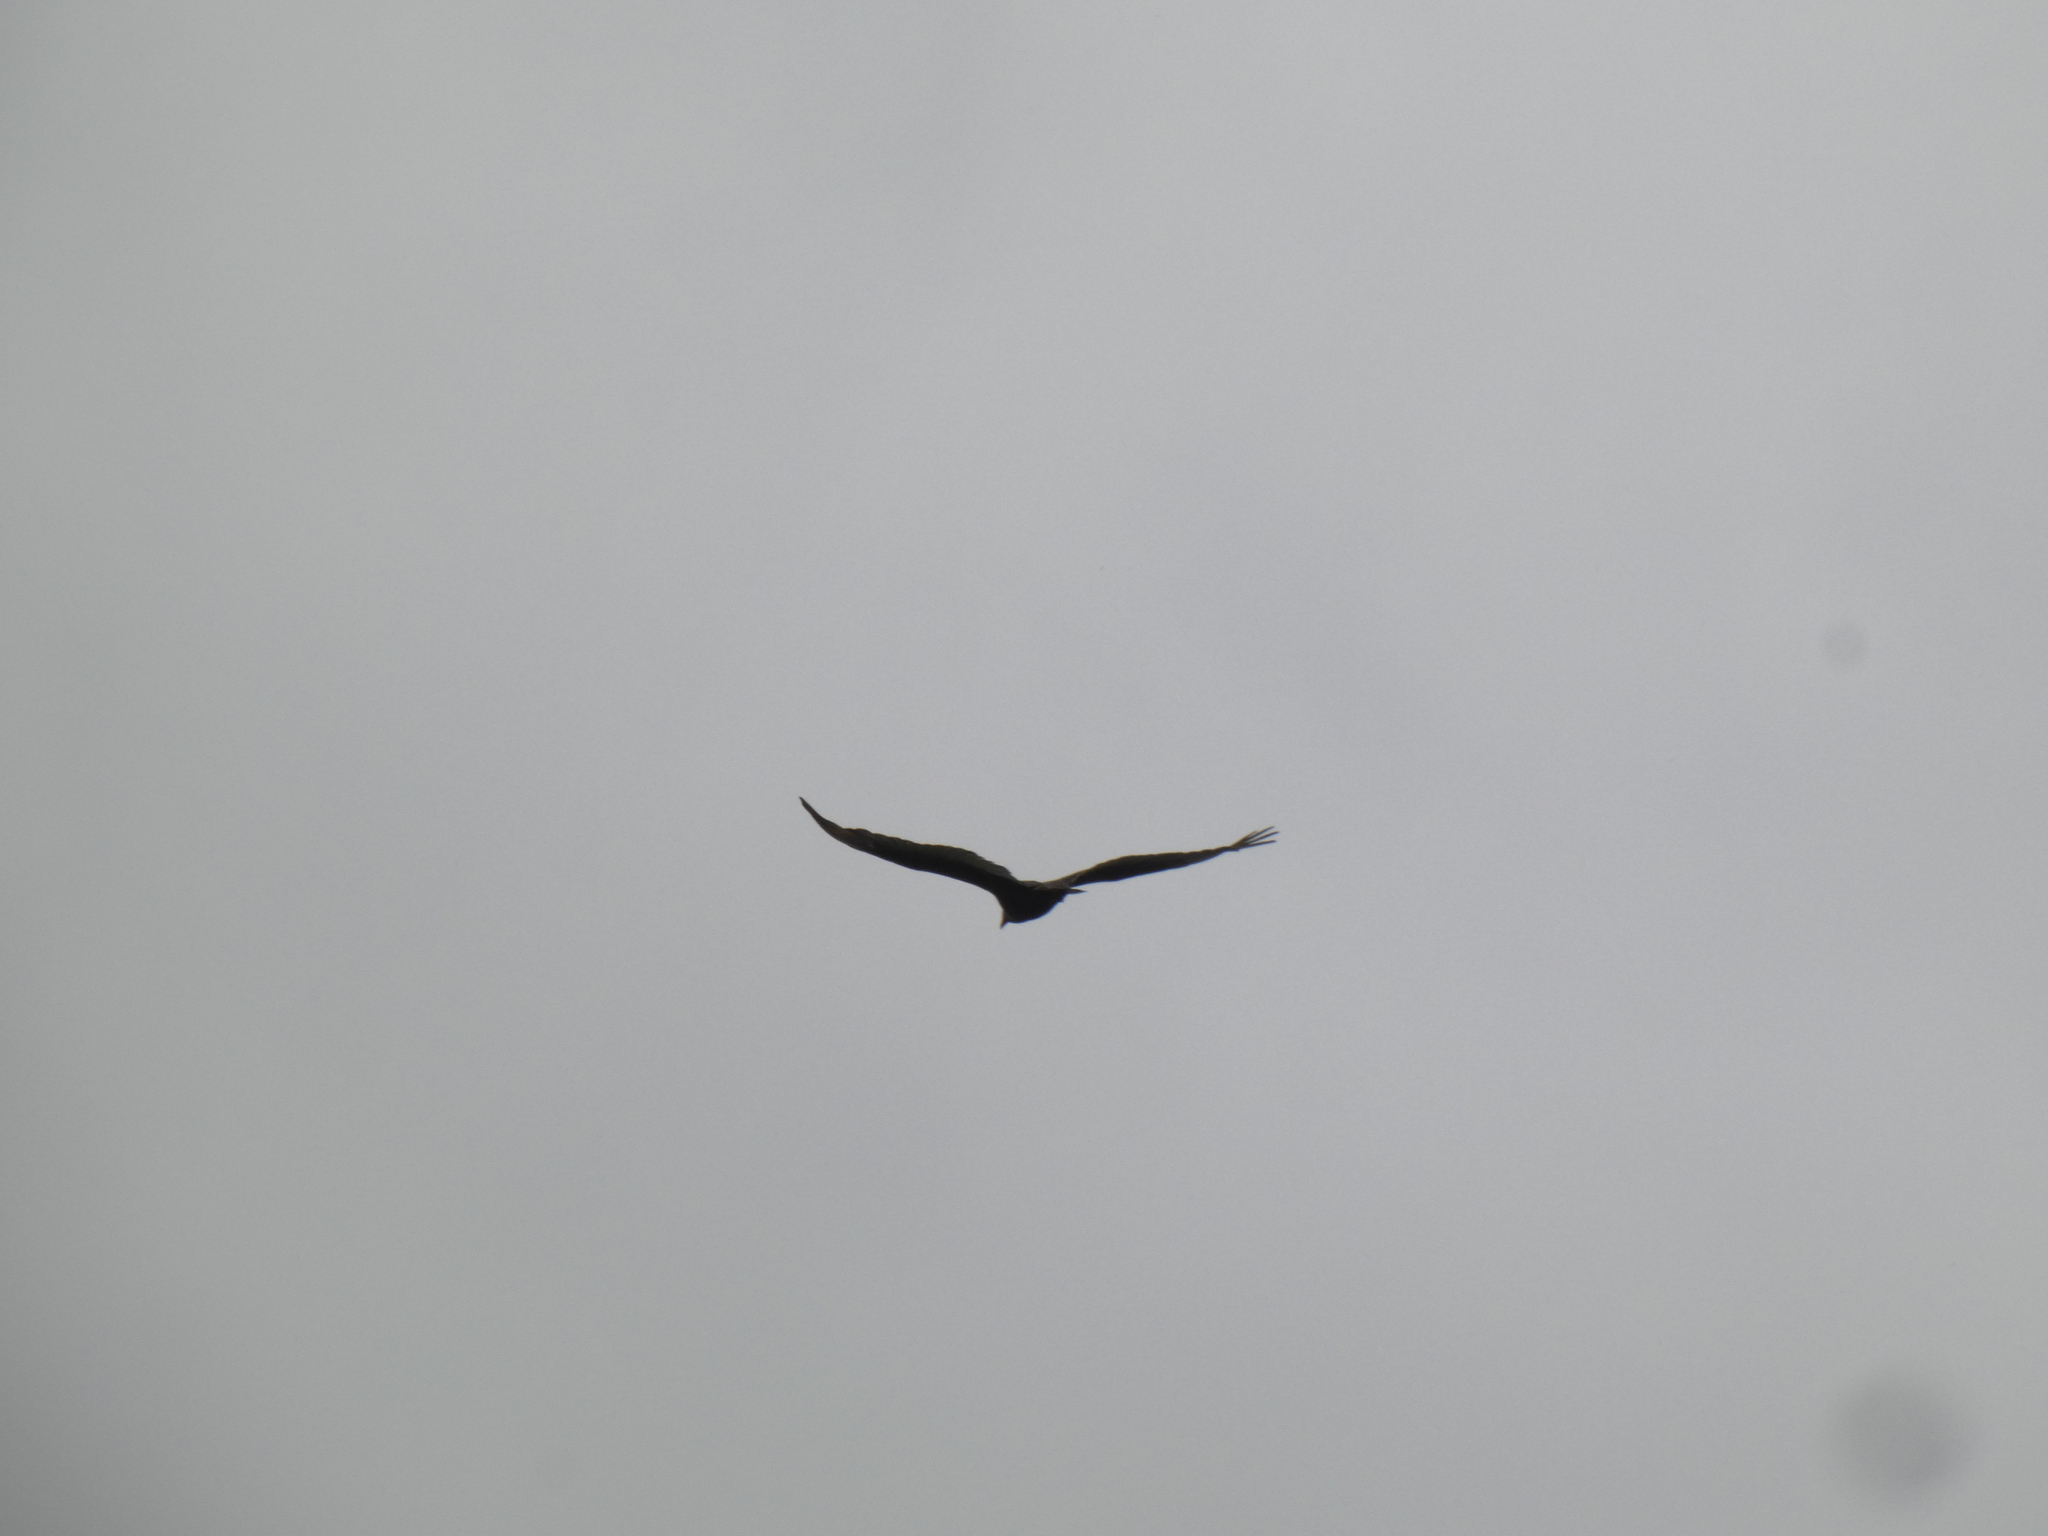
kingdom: Animalia
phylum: Chordata
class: Aves
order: Accipitriformes
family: Cathartidae
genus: Cathartes
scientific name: Cathartes aura
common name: Turkey vulture
